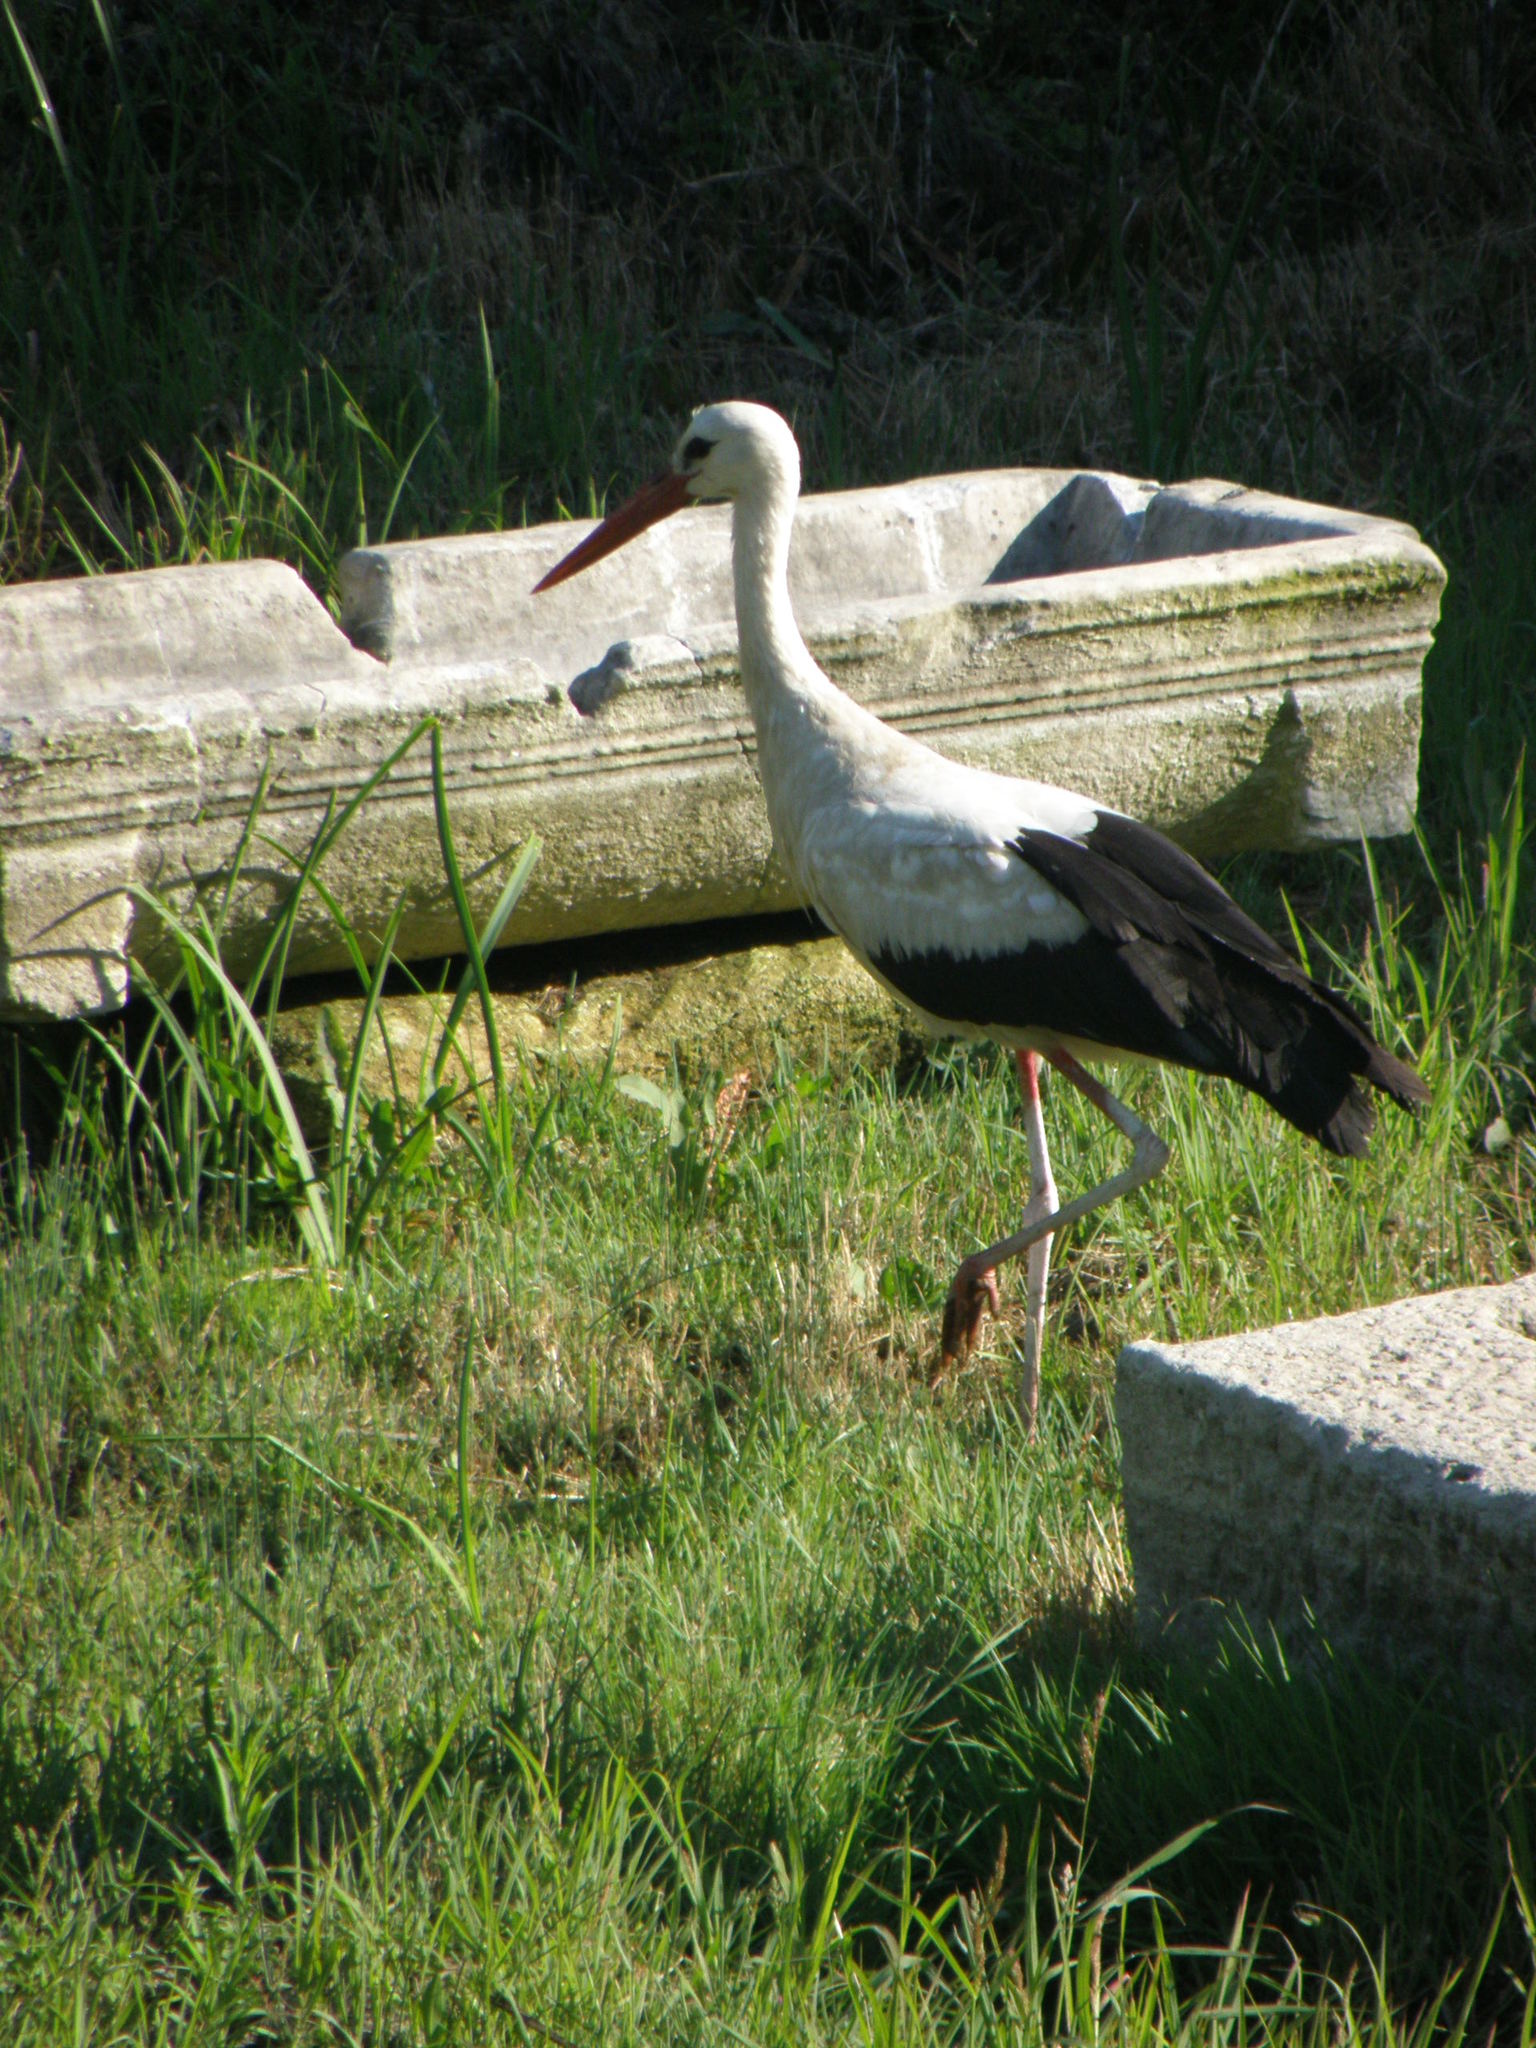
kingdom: Animalia
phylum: Chordata
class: Aves
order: Ciconiiformes
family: Ciconiidae
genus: Ciconia
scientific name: Ciconia ciconia
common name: White stork
